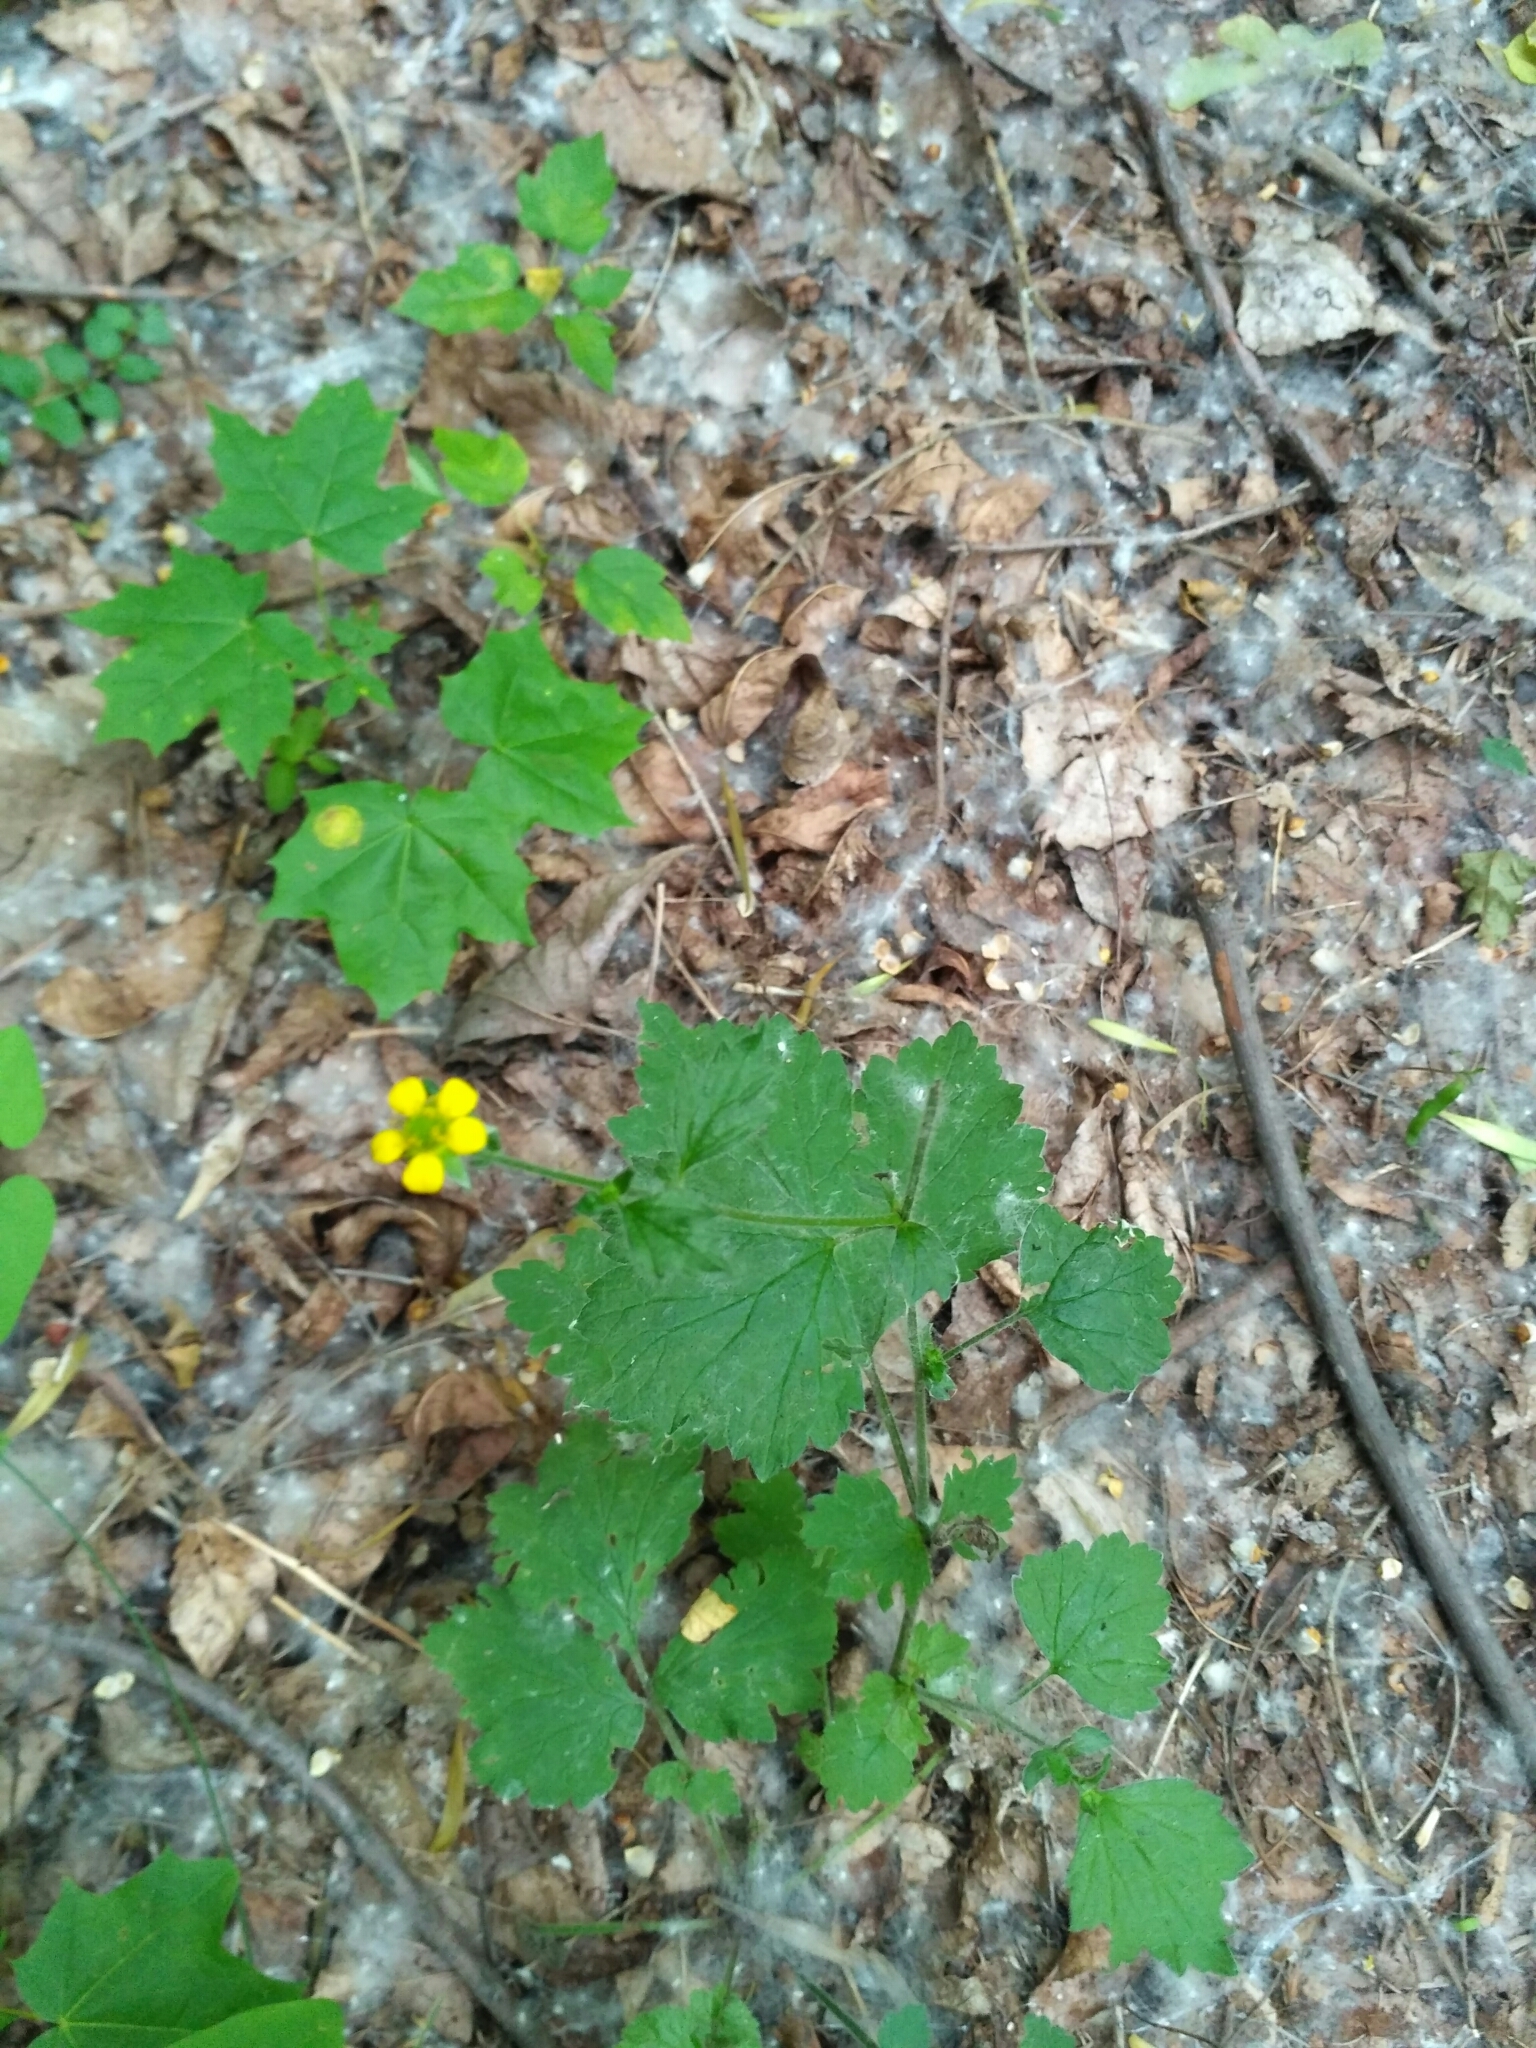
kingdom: Plantae
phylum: Tracheophyta
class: Magnoliopsida
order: Rosales
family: Rosaceae
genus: Geum
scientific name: Geum urbanum
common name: Wood avens
